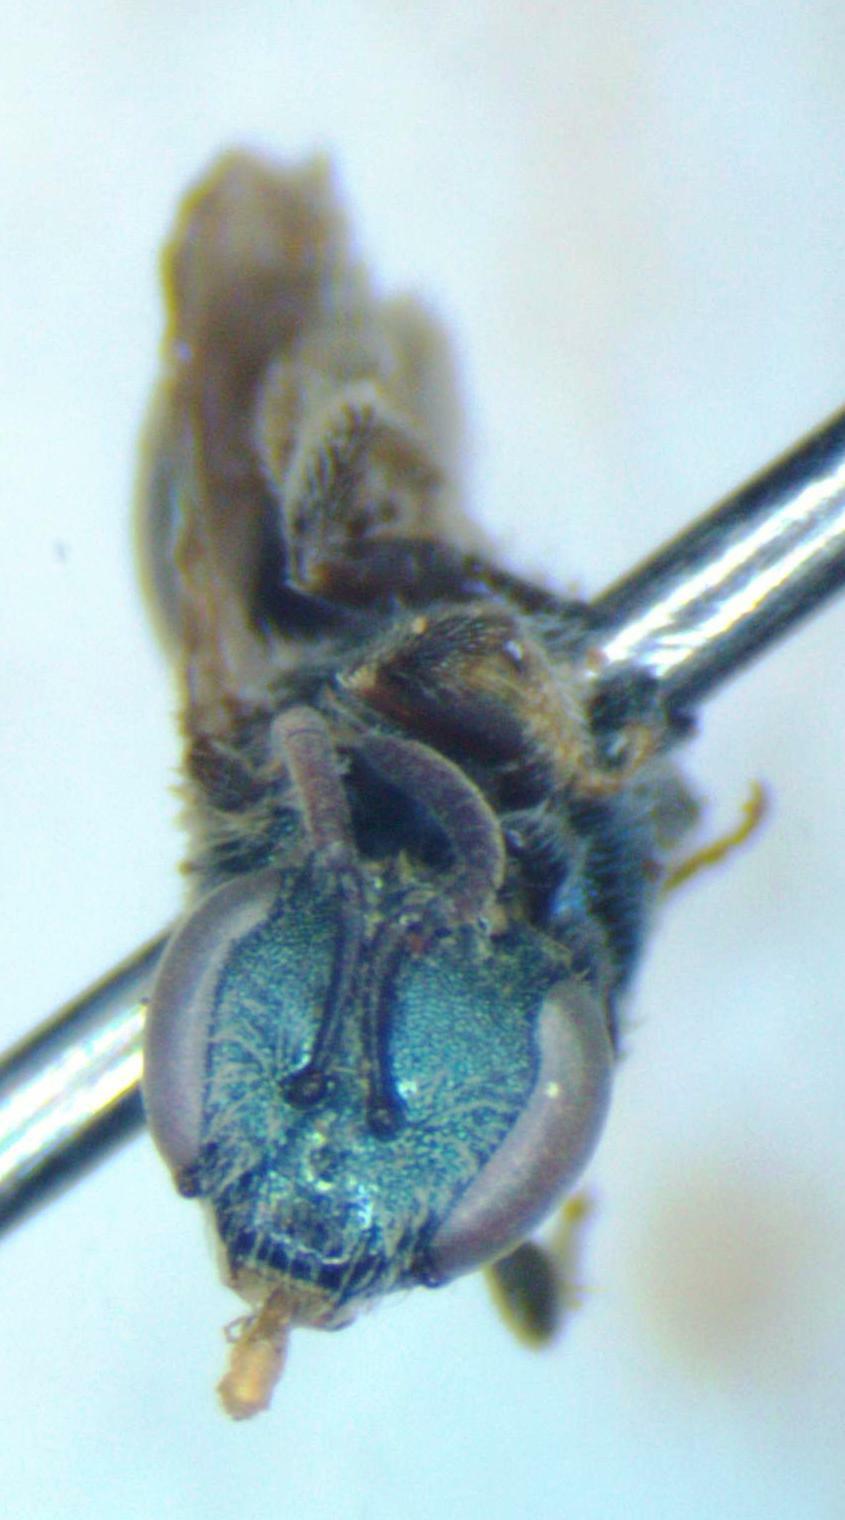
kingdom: Animalia
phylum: Arthropoda
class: Insecta
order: Hymenoptera
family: Halictidae
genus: Dialictus
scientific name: Dialictus
